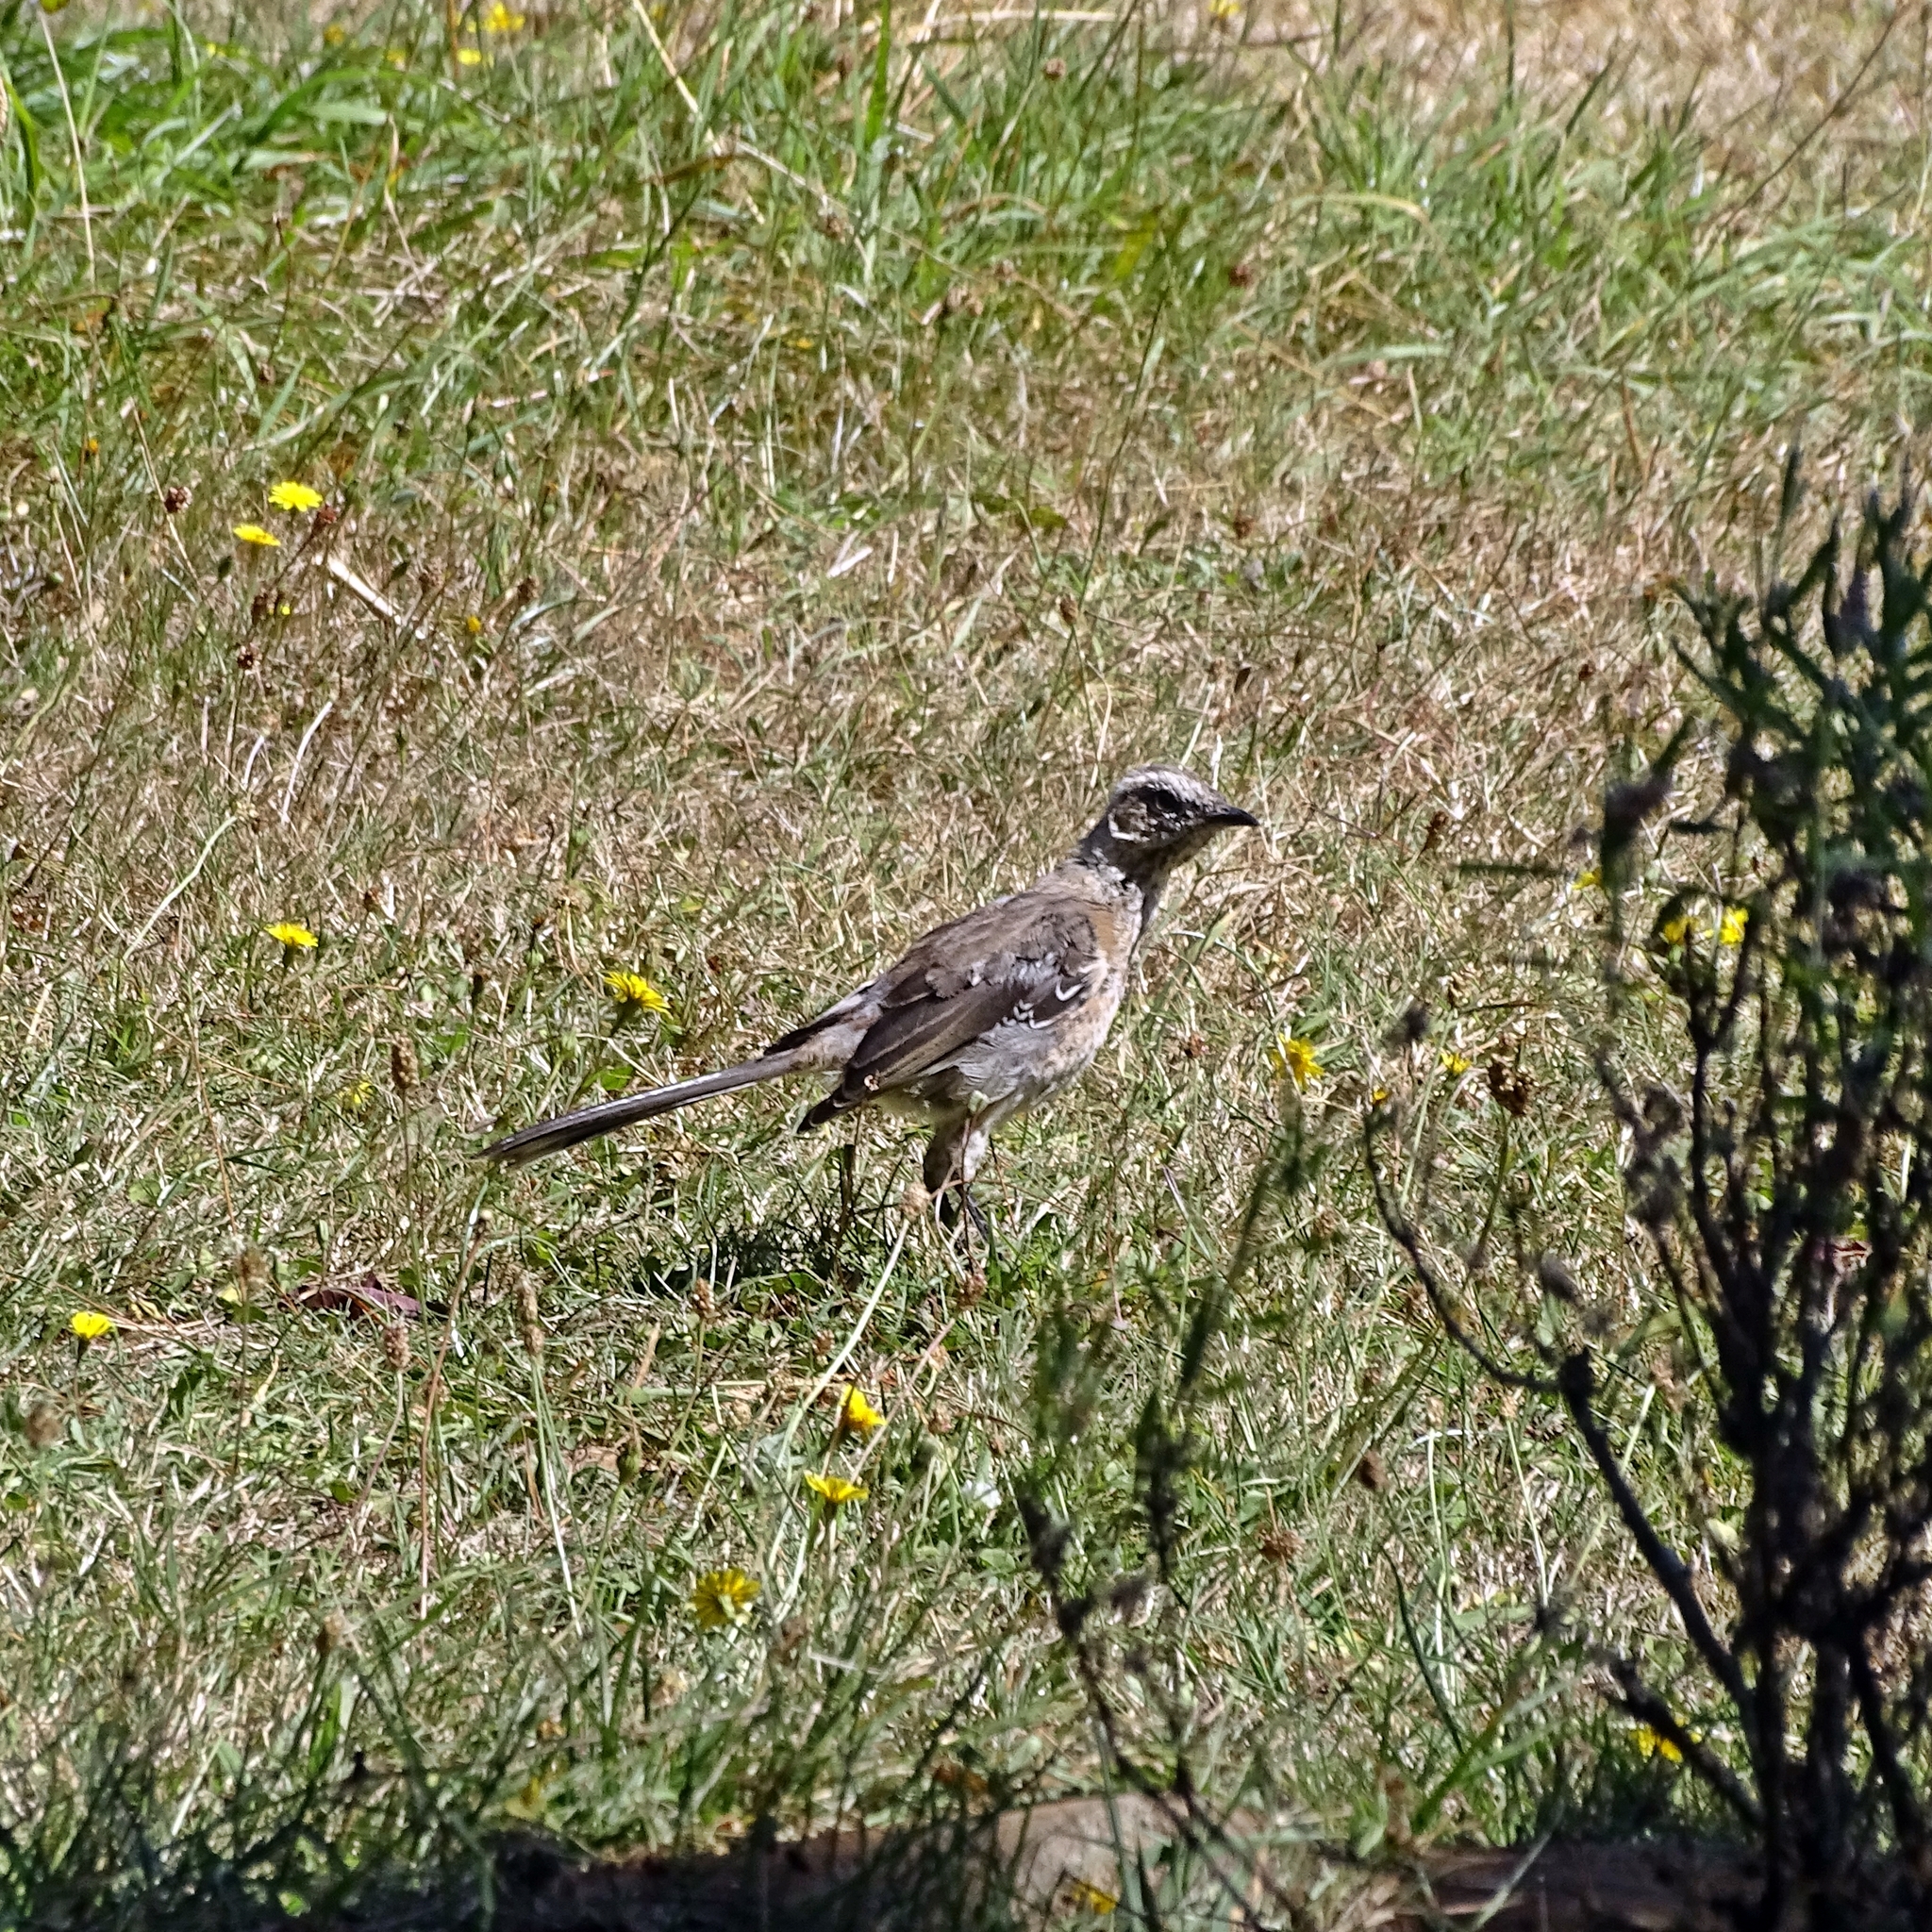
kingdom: Animalia
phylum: Chordata
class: Aves
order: Passeriformes
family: Mimidae
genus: Mimus
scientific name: Mimus thenca
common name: Chilean mockingbird
